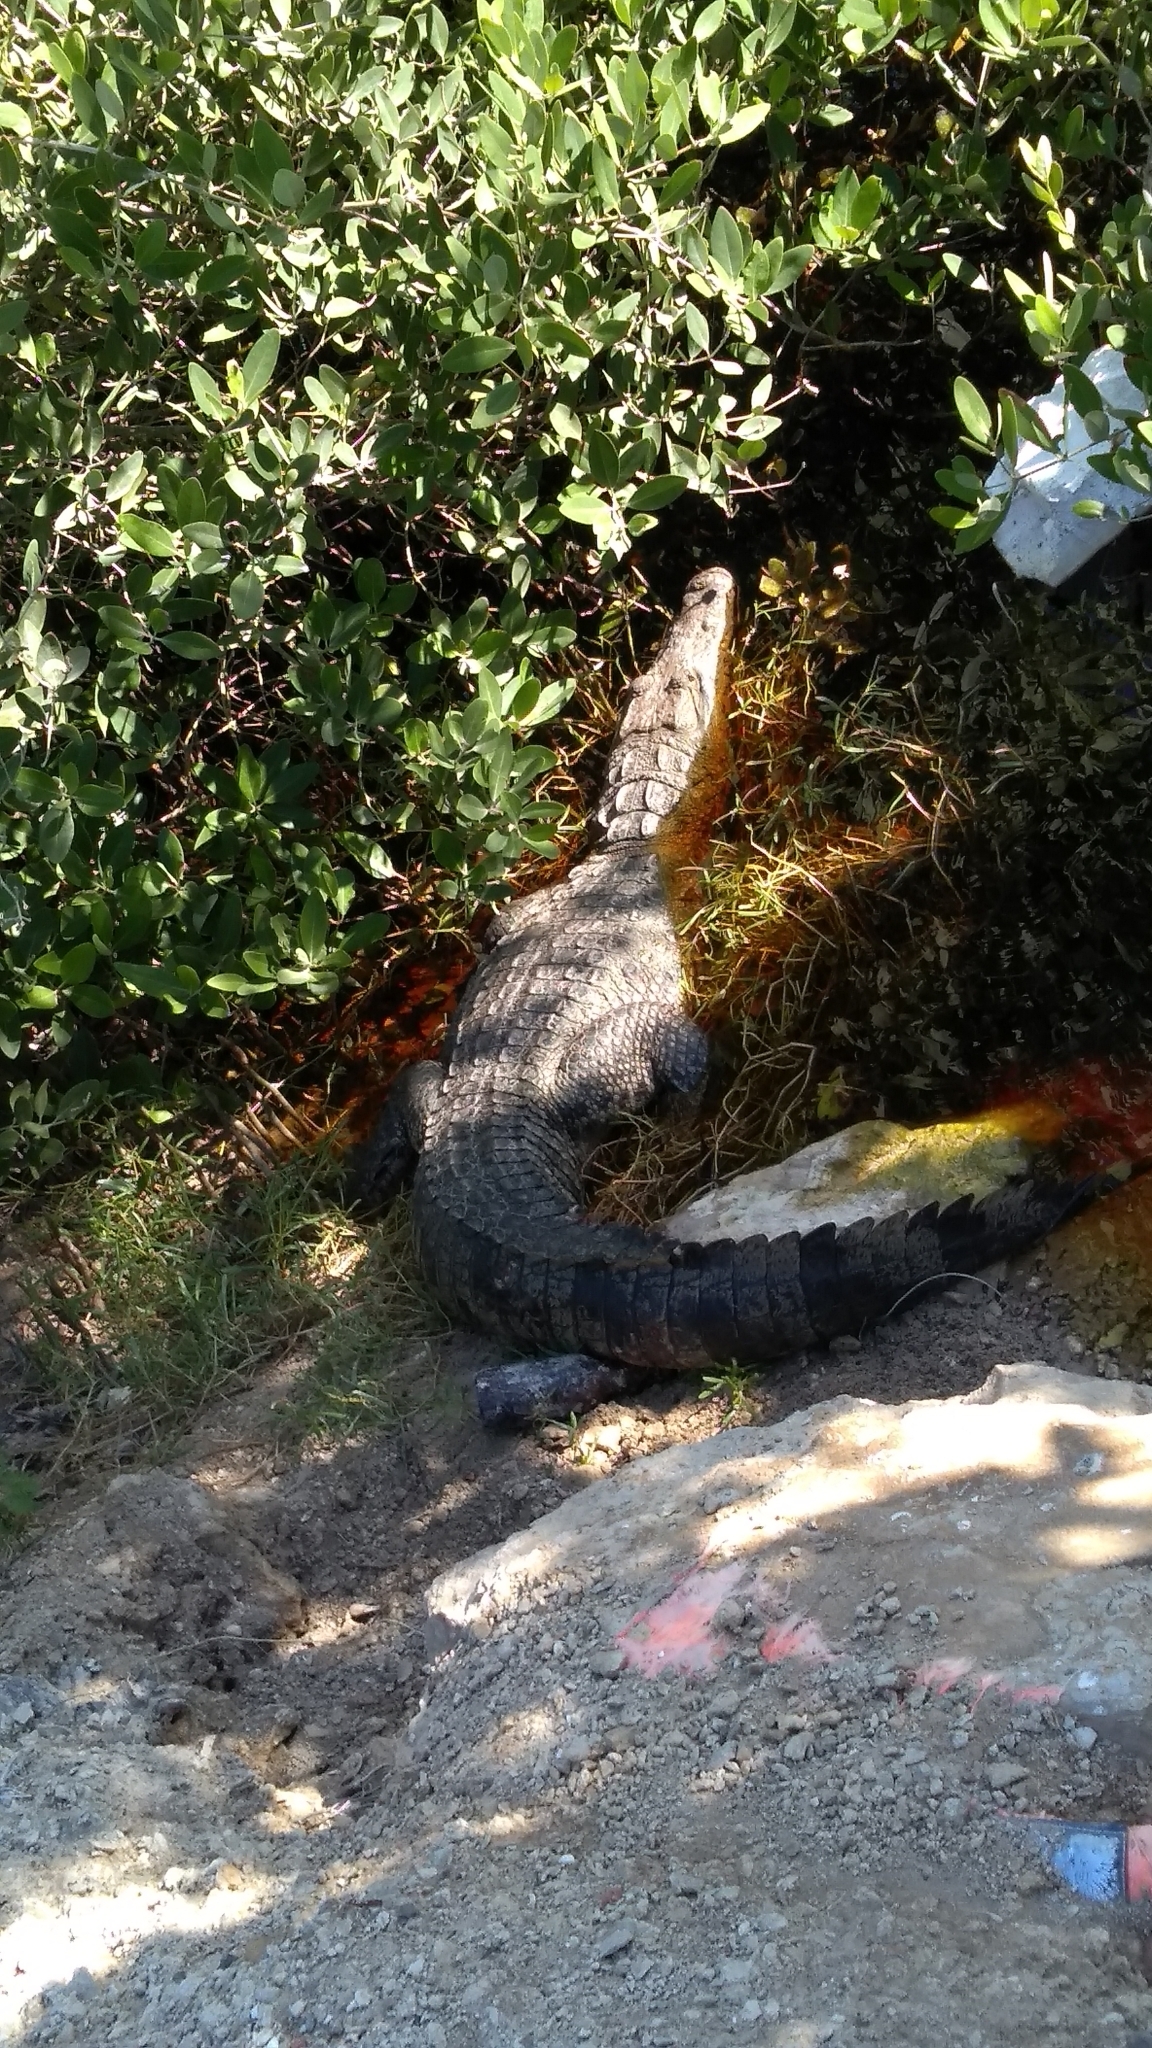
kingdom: Animalia
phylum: Chordata
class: Crocodylia
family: Crocodylidae
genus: Crocodylus
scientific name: Crocodylus moreletii
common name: Morelet's crocodile
